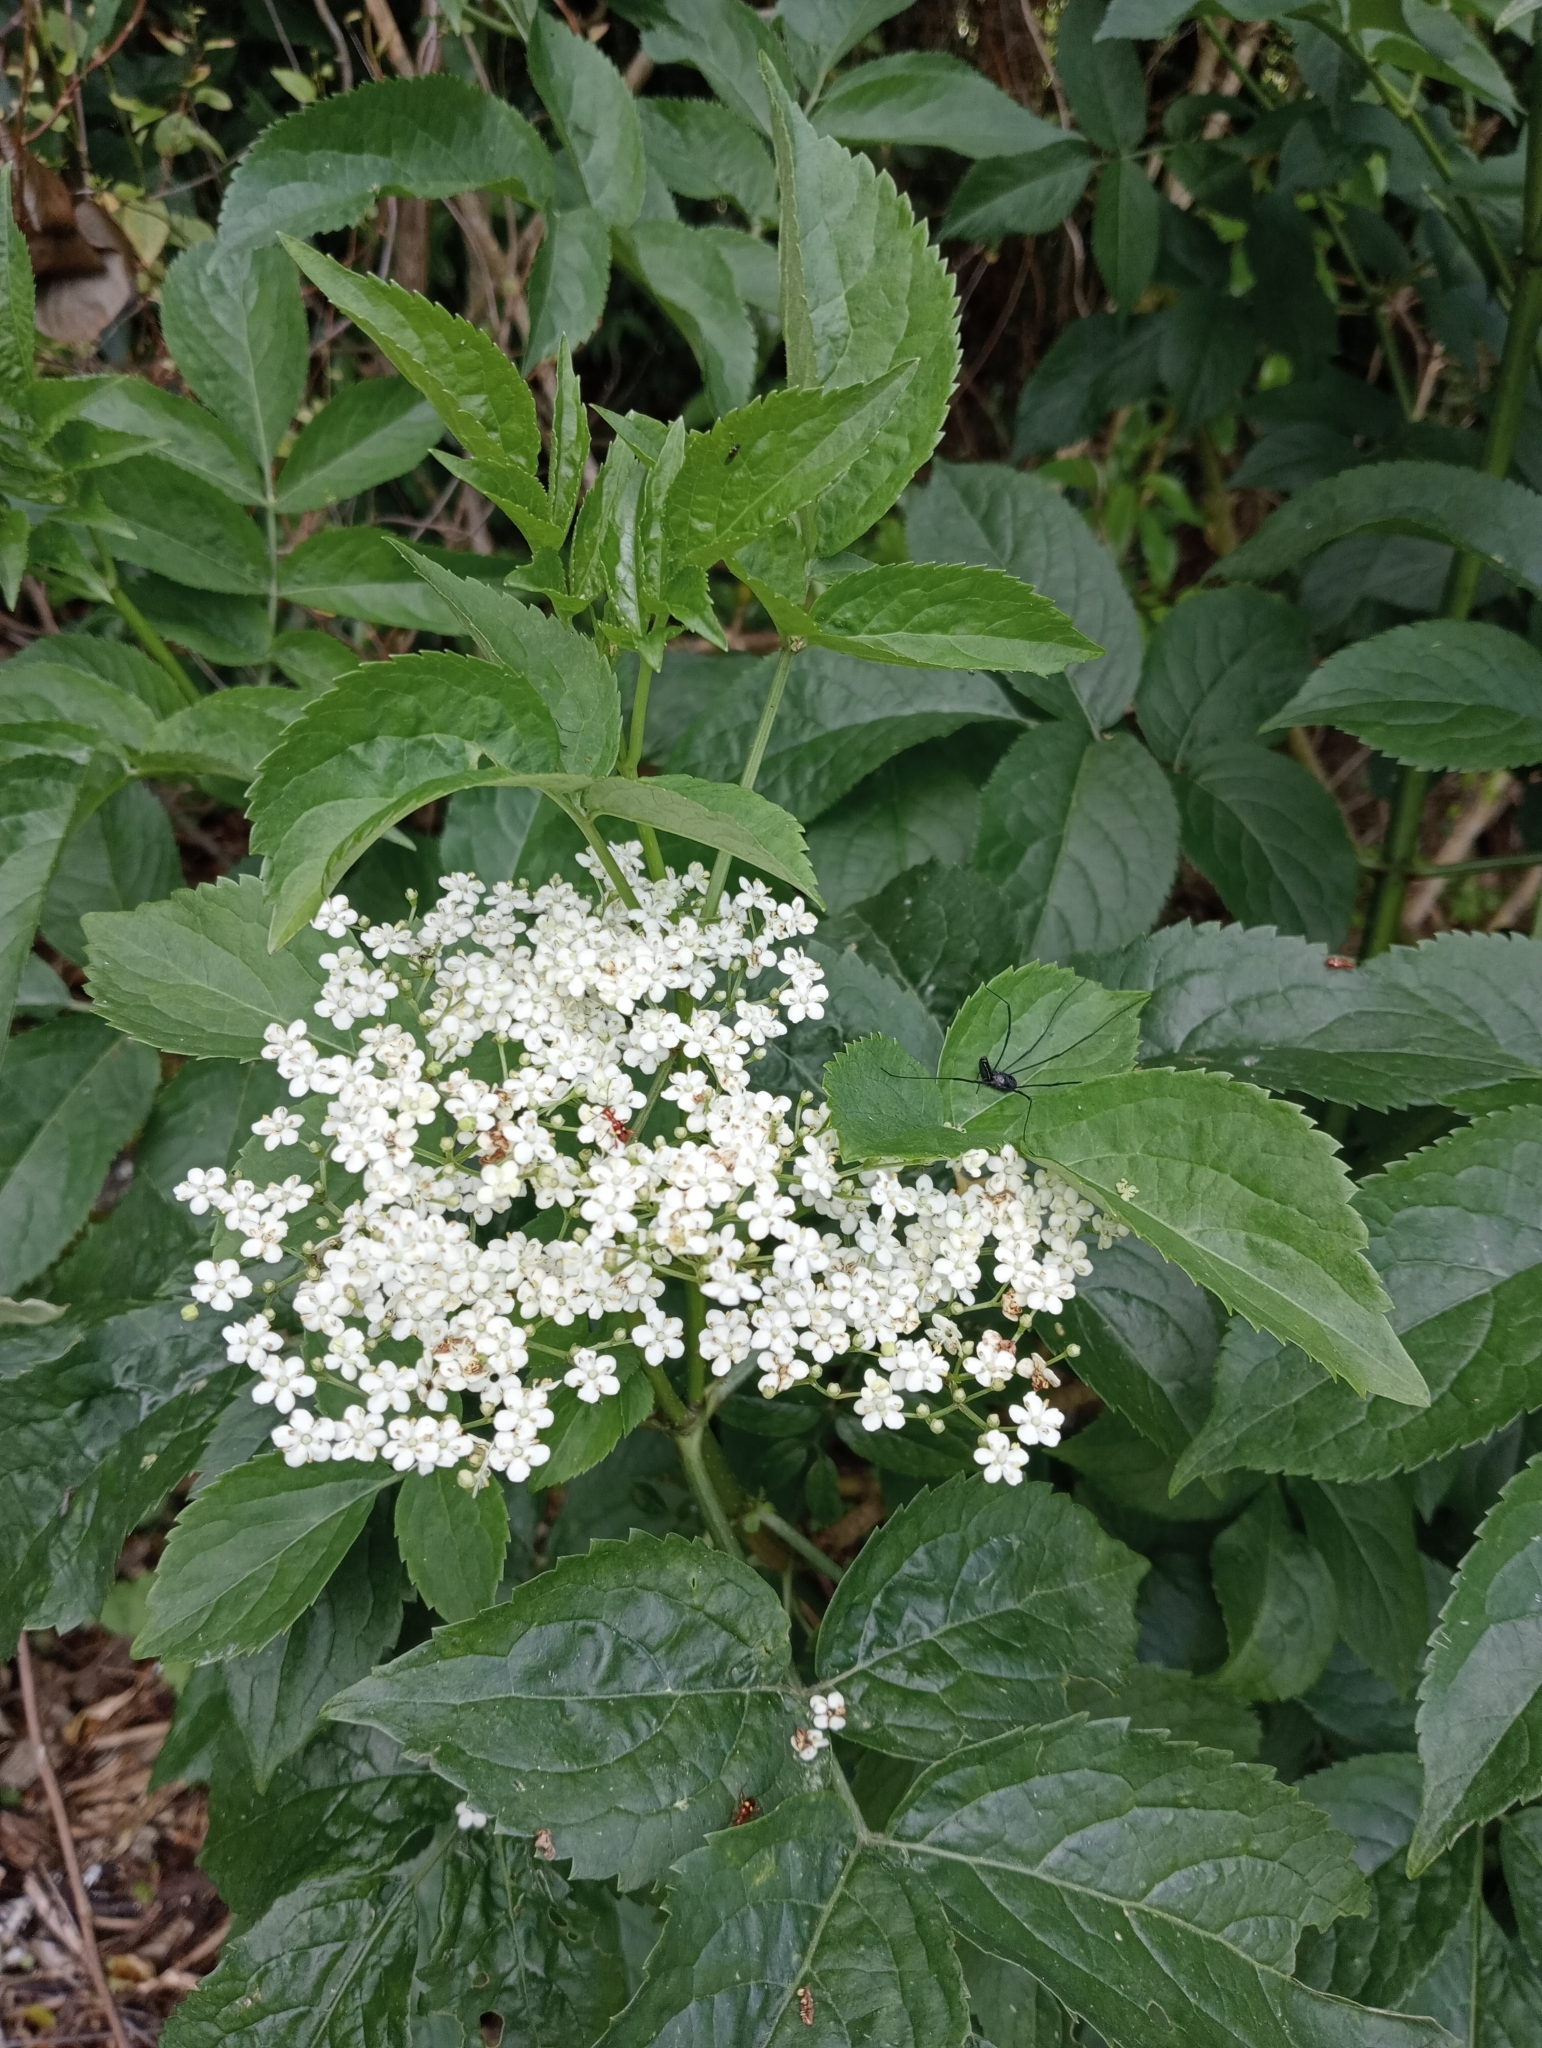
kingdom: Plantae
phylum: Tracheophyta
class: Magnoliopsida
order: Dipsacales
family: Viburnaceae
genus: Sambucus
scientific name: Sambucus nigra
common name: Elder
